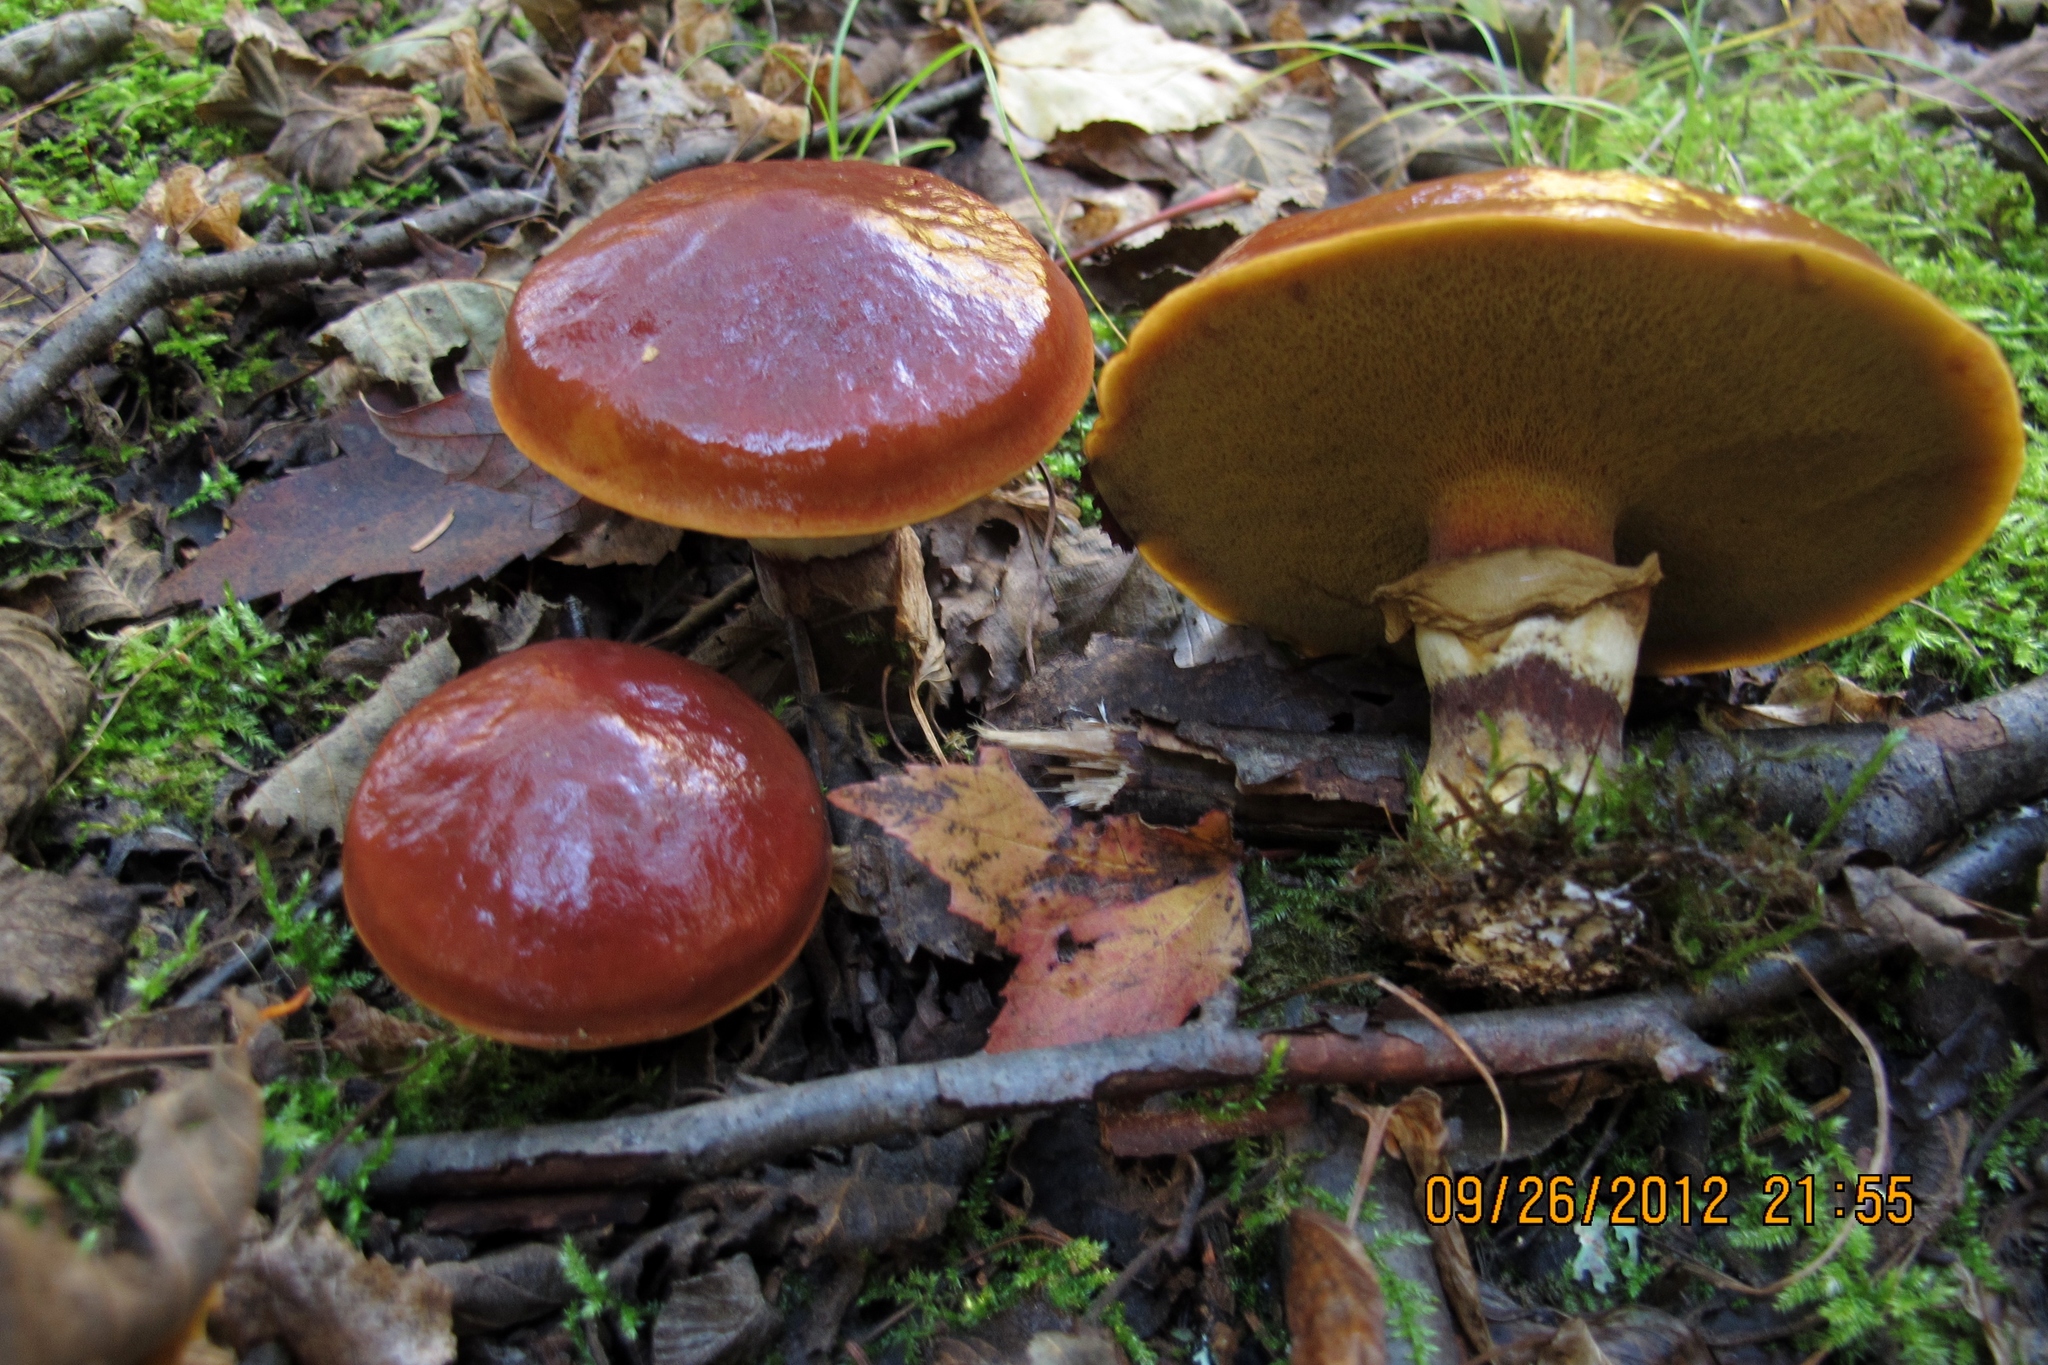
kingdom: Fungi
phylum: Basidiomycota
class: Agaricomycetes
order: Boletales
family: Suillaceae
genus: Suillus
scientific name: Suillus grevillei
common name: Larch bolete
